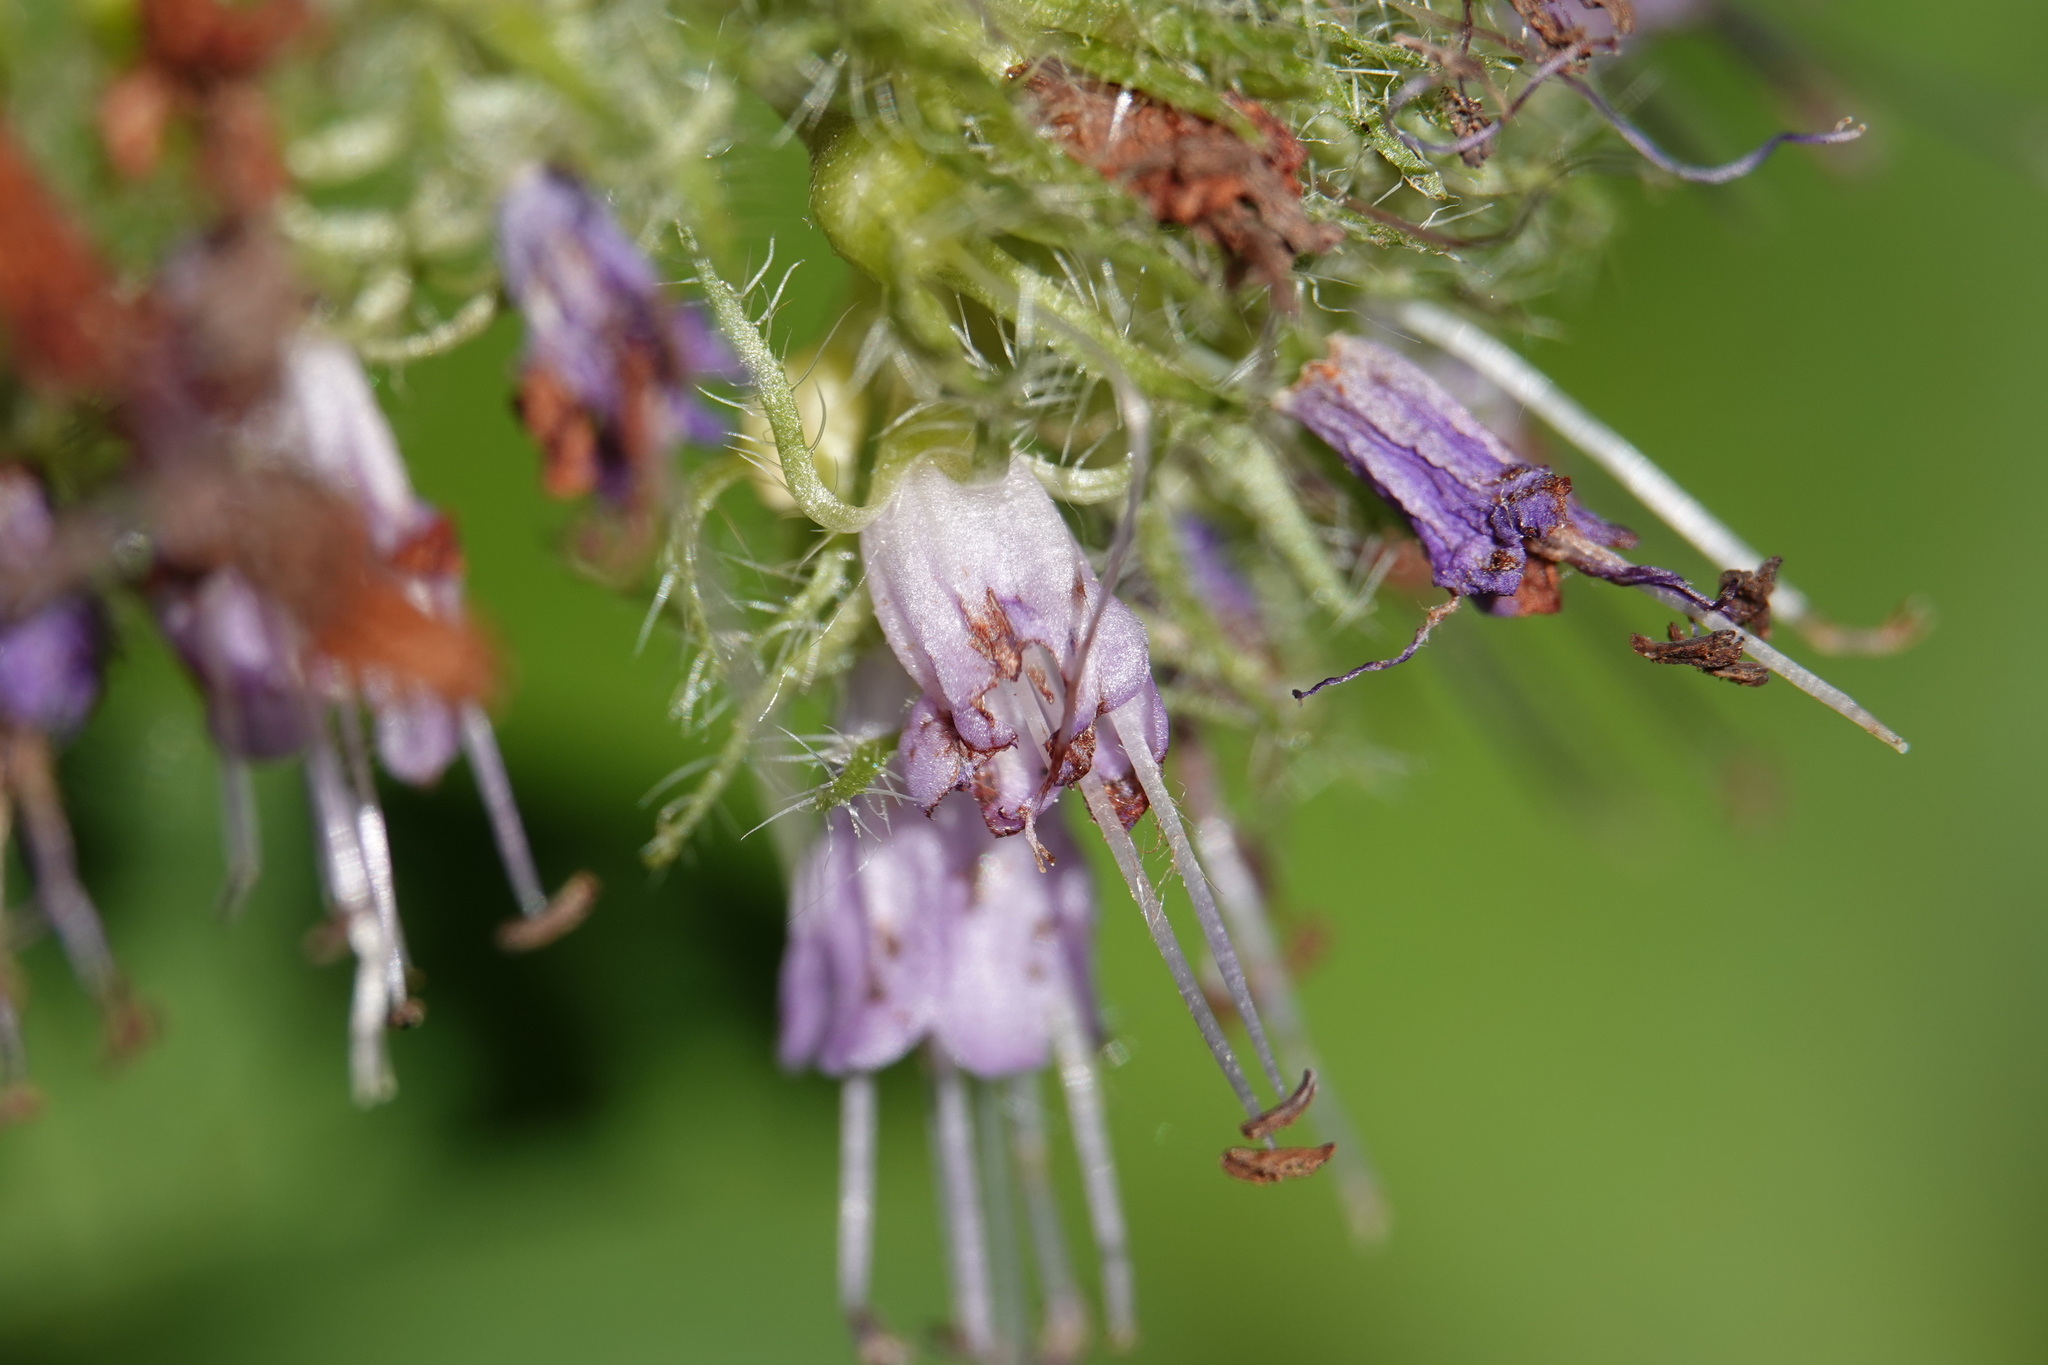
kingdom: Plantae
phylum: Tracheophyta
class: Magnoliopsida
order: Boraginales
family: Hydrophyllaceae
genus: Hydrophyllum
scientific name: Hydrophyllum virginianum
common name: Virginia waterleaf
